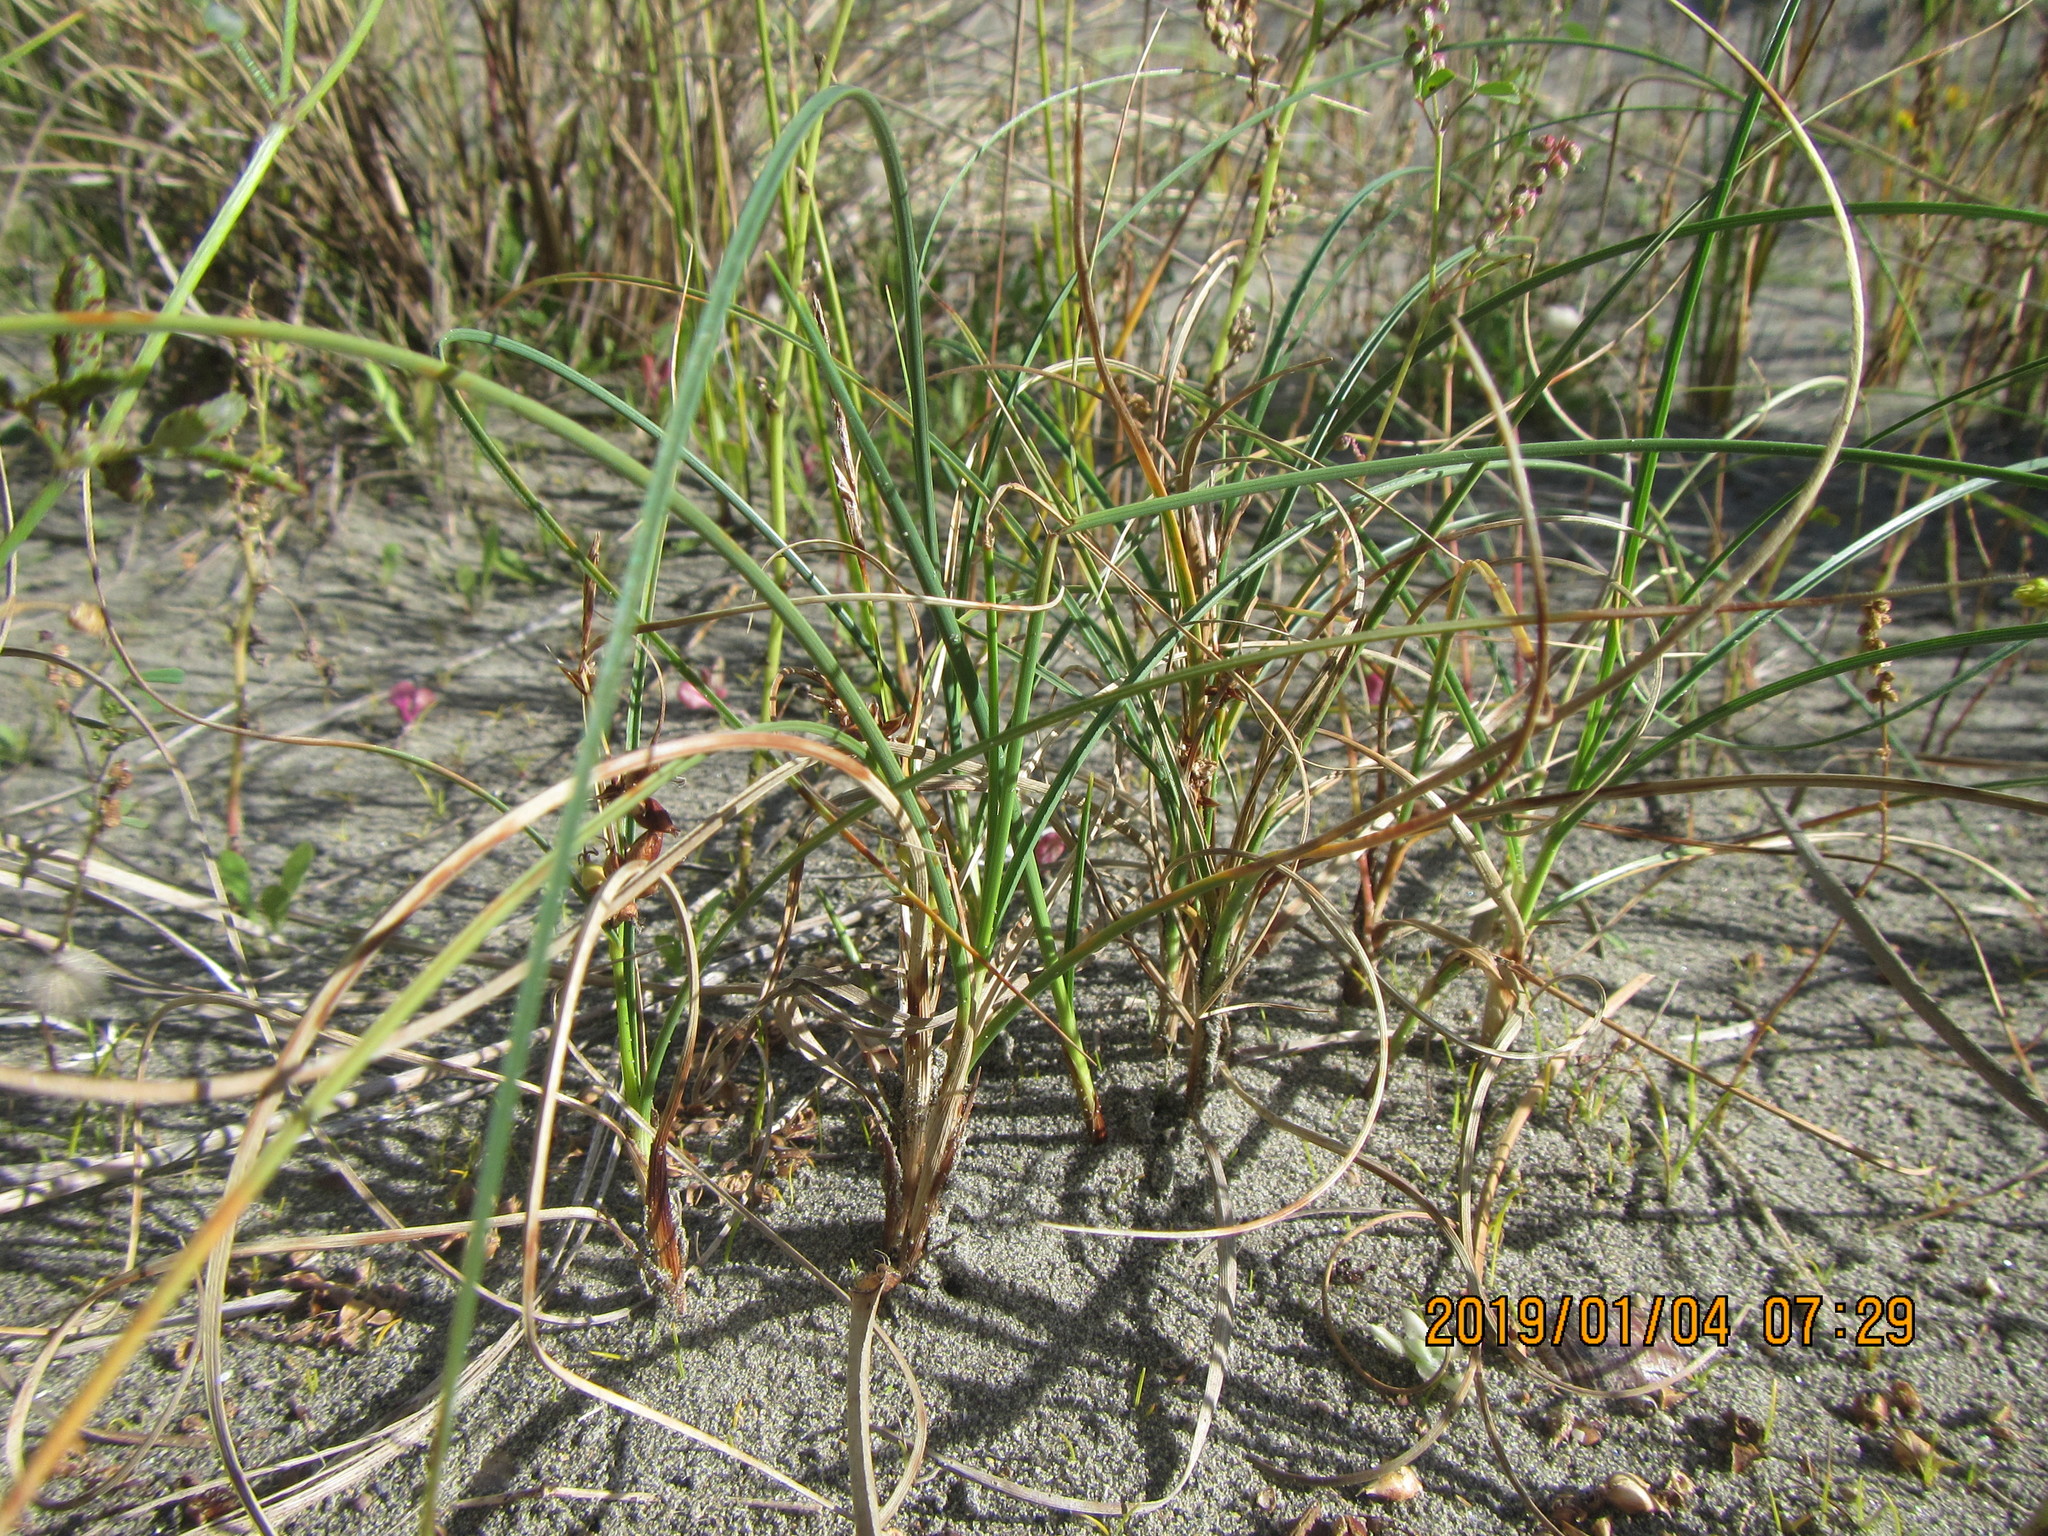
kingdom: Plantae
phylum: Tracheophyta
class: Liliopsida
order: Poales
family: Cyperaceae
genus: Carex
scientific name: Carex pumila
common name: Dwarf sedge
